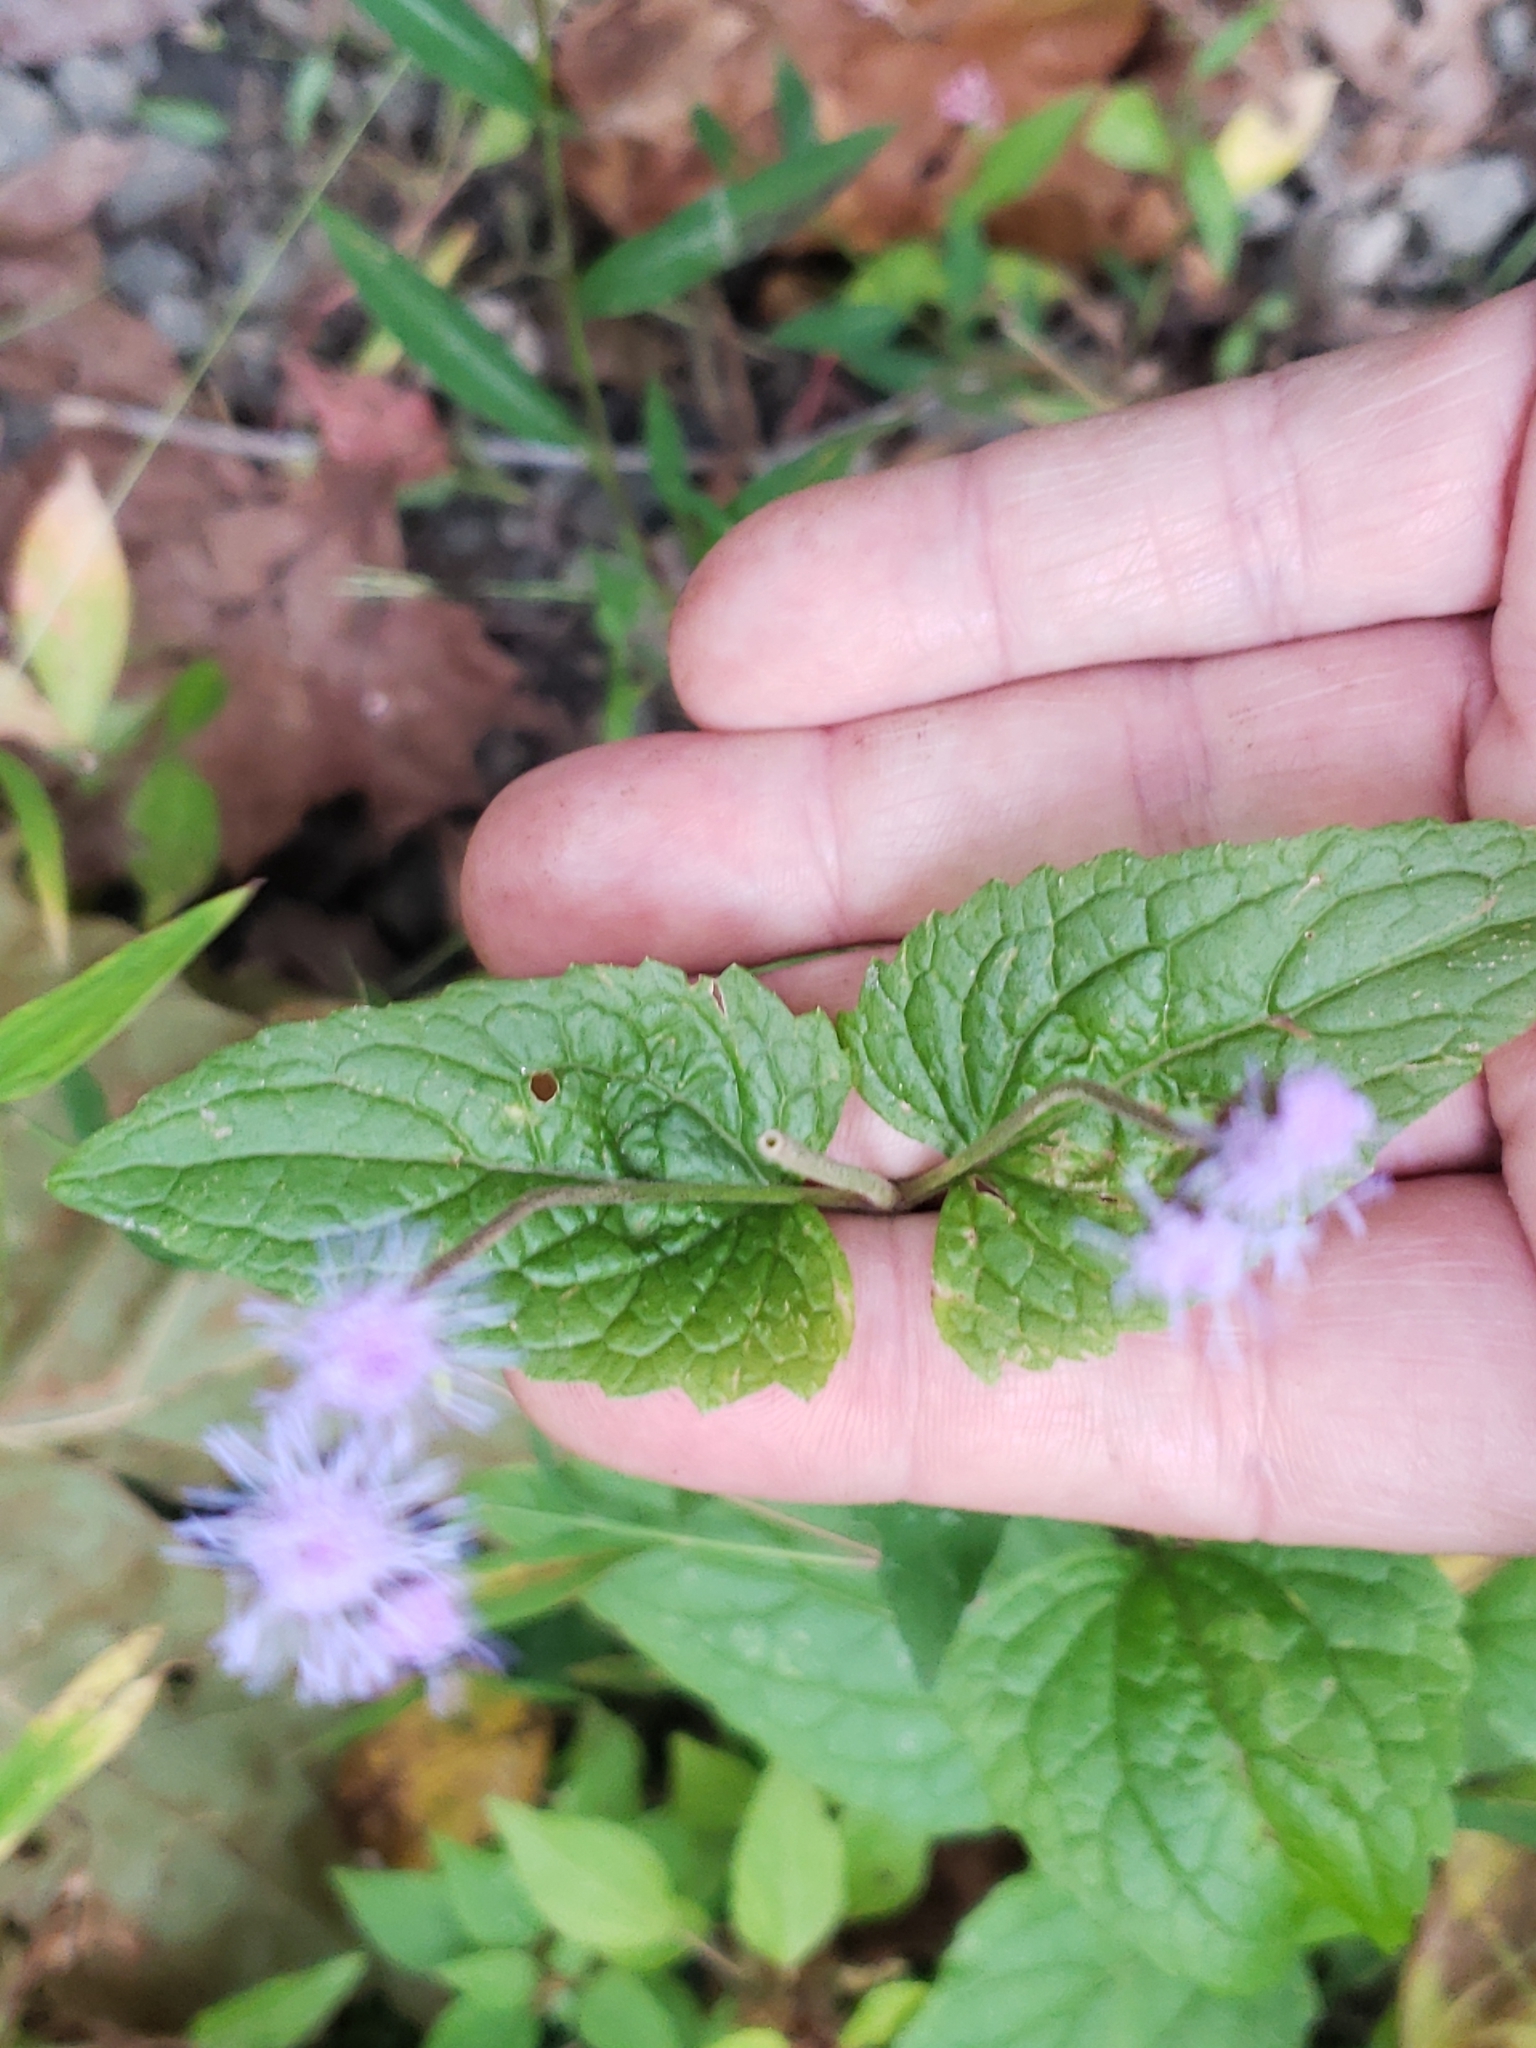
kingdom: Plantae
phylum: Tracheophyta
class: Magnoliopsida
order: Asterales
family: Asteraceae
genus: Conoclinium
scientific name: Conoclinium coelestinum
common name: Blue mistflower
